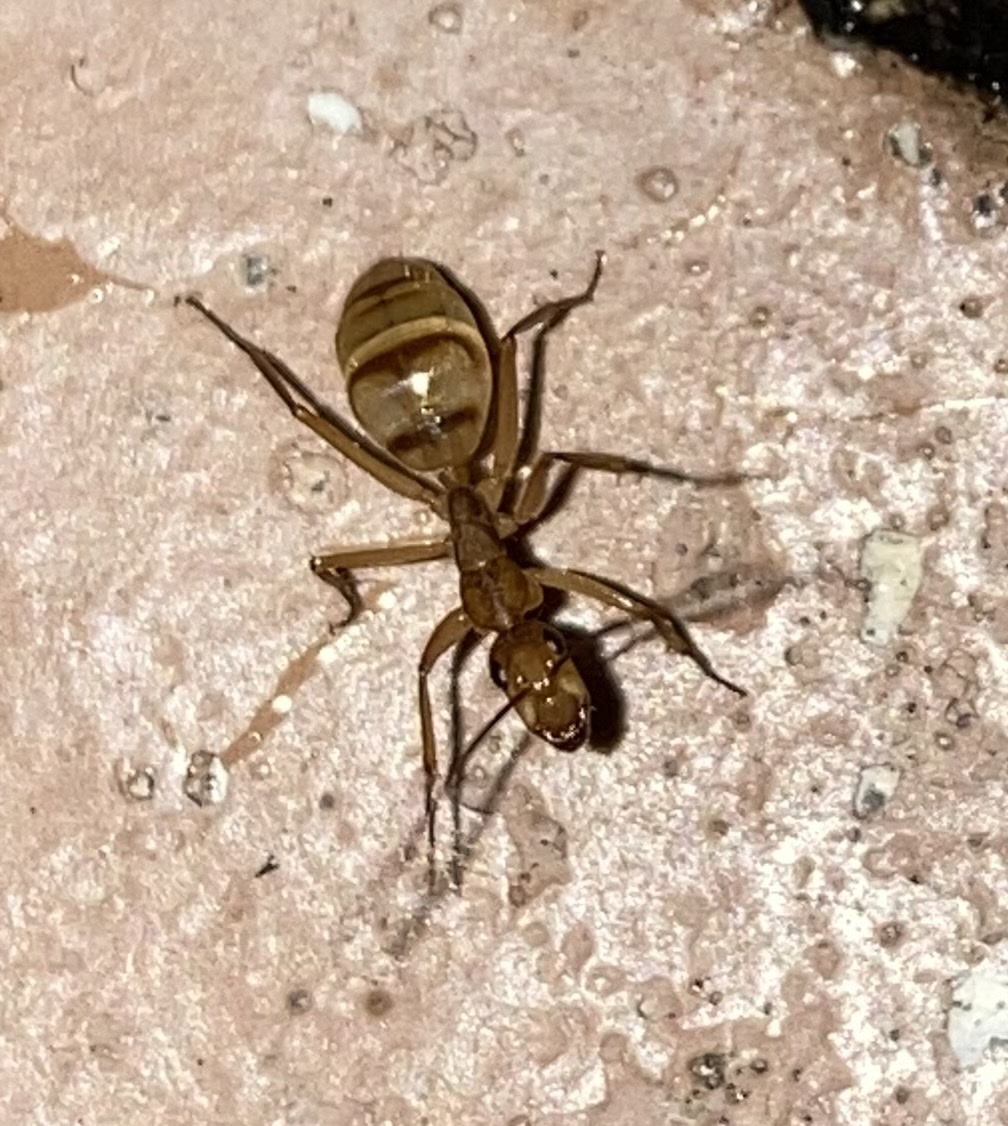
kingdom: Animalia
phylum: Arthropoda
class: Insecta
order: Hymenoptera
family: Formicidae
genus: Camponotus
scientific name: Camponotus
